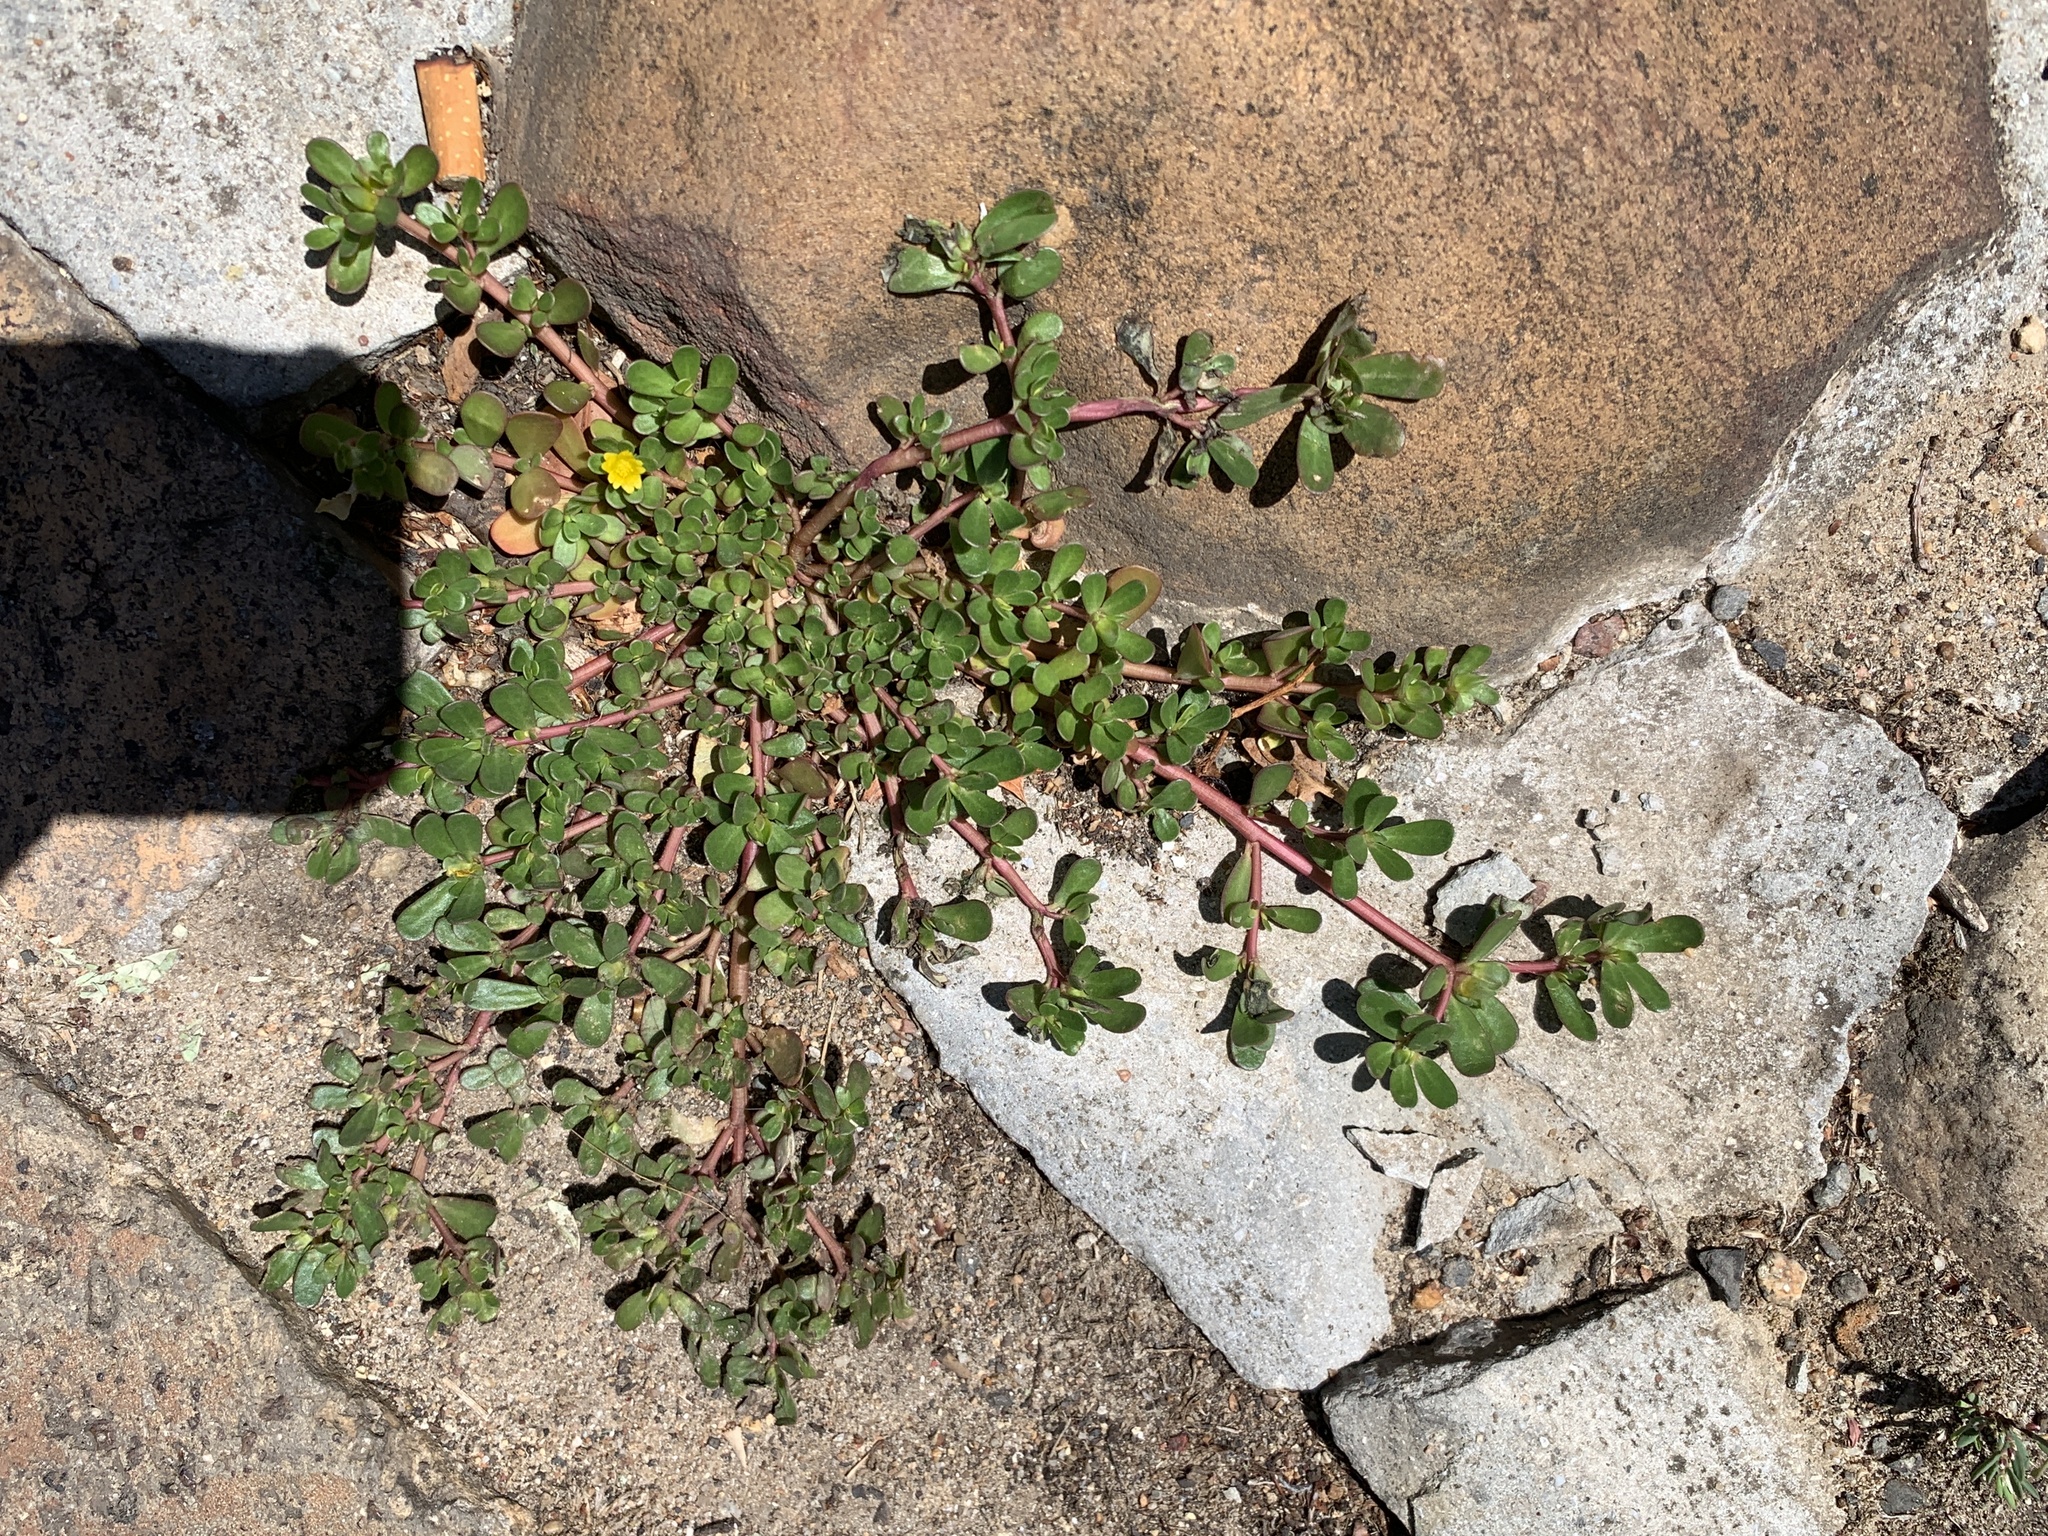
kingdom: Plantae
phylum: Tracheophyta
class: Magnoliopsida
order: Caryophyllales
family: Portulacaceae
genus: Portulaca
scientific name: Portulaca oleracea
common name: Common purslane
